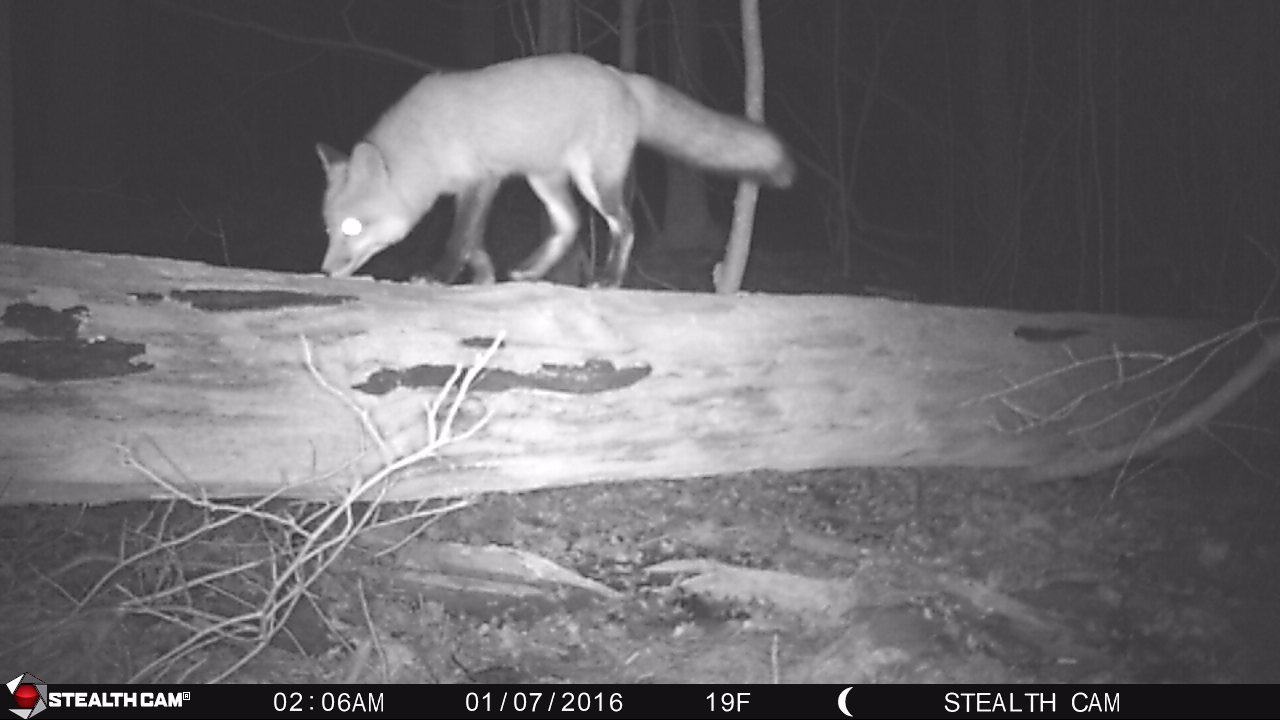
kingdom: Animalia
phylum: Chordata
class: Mammalia
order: Carnivora
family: Canidae
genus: Vulpes
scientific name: Vulpes vulpes
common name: Red fox
